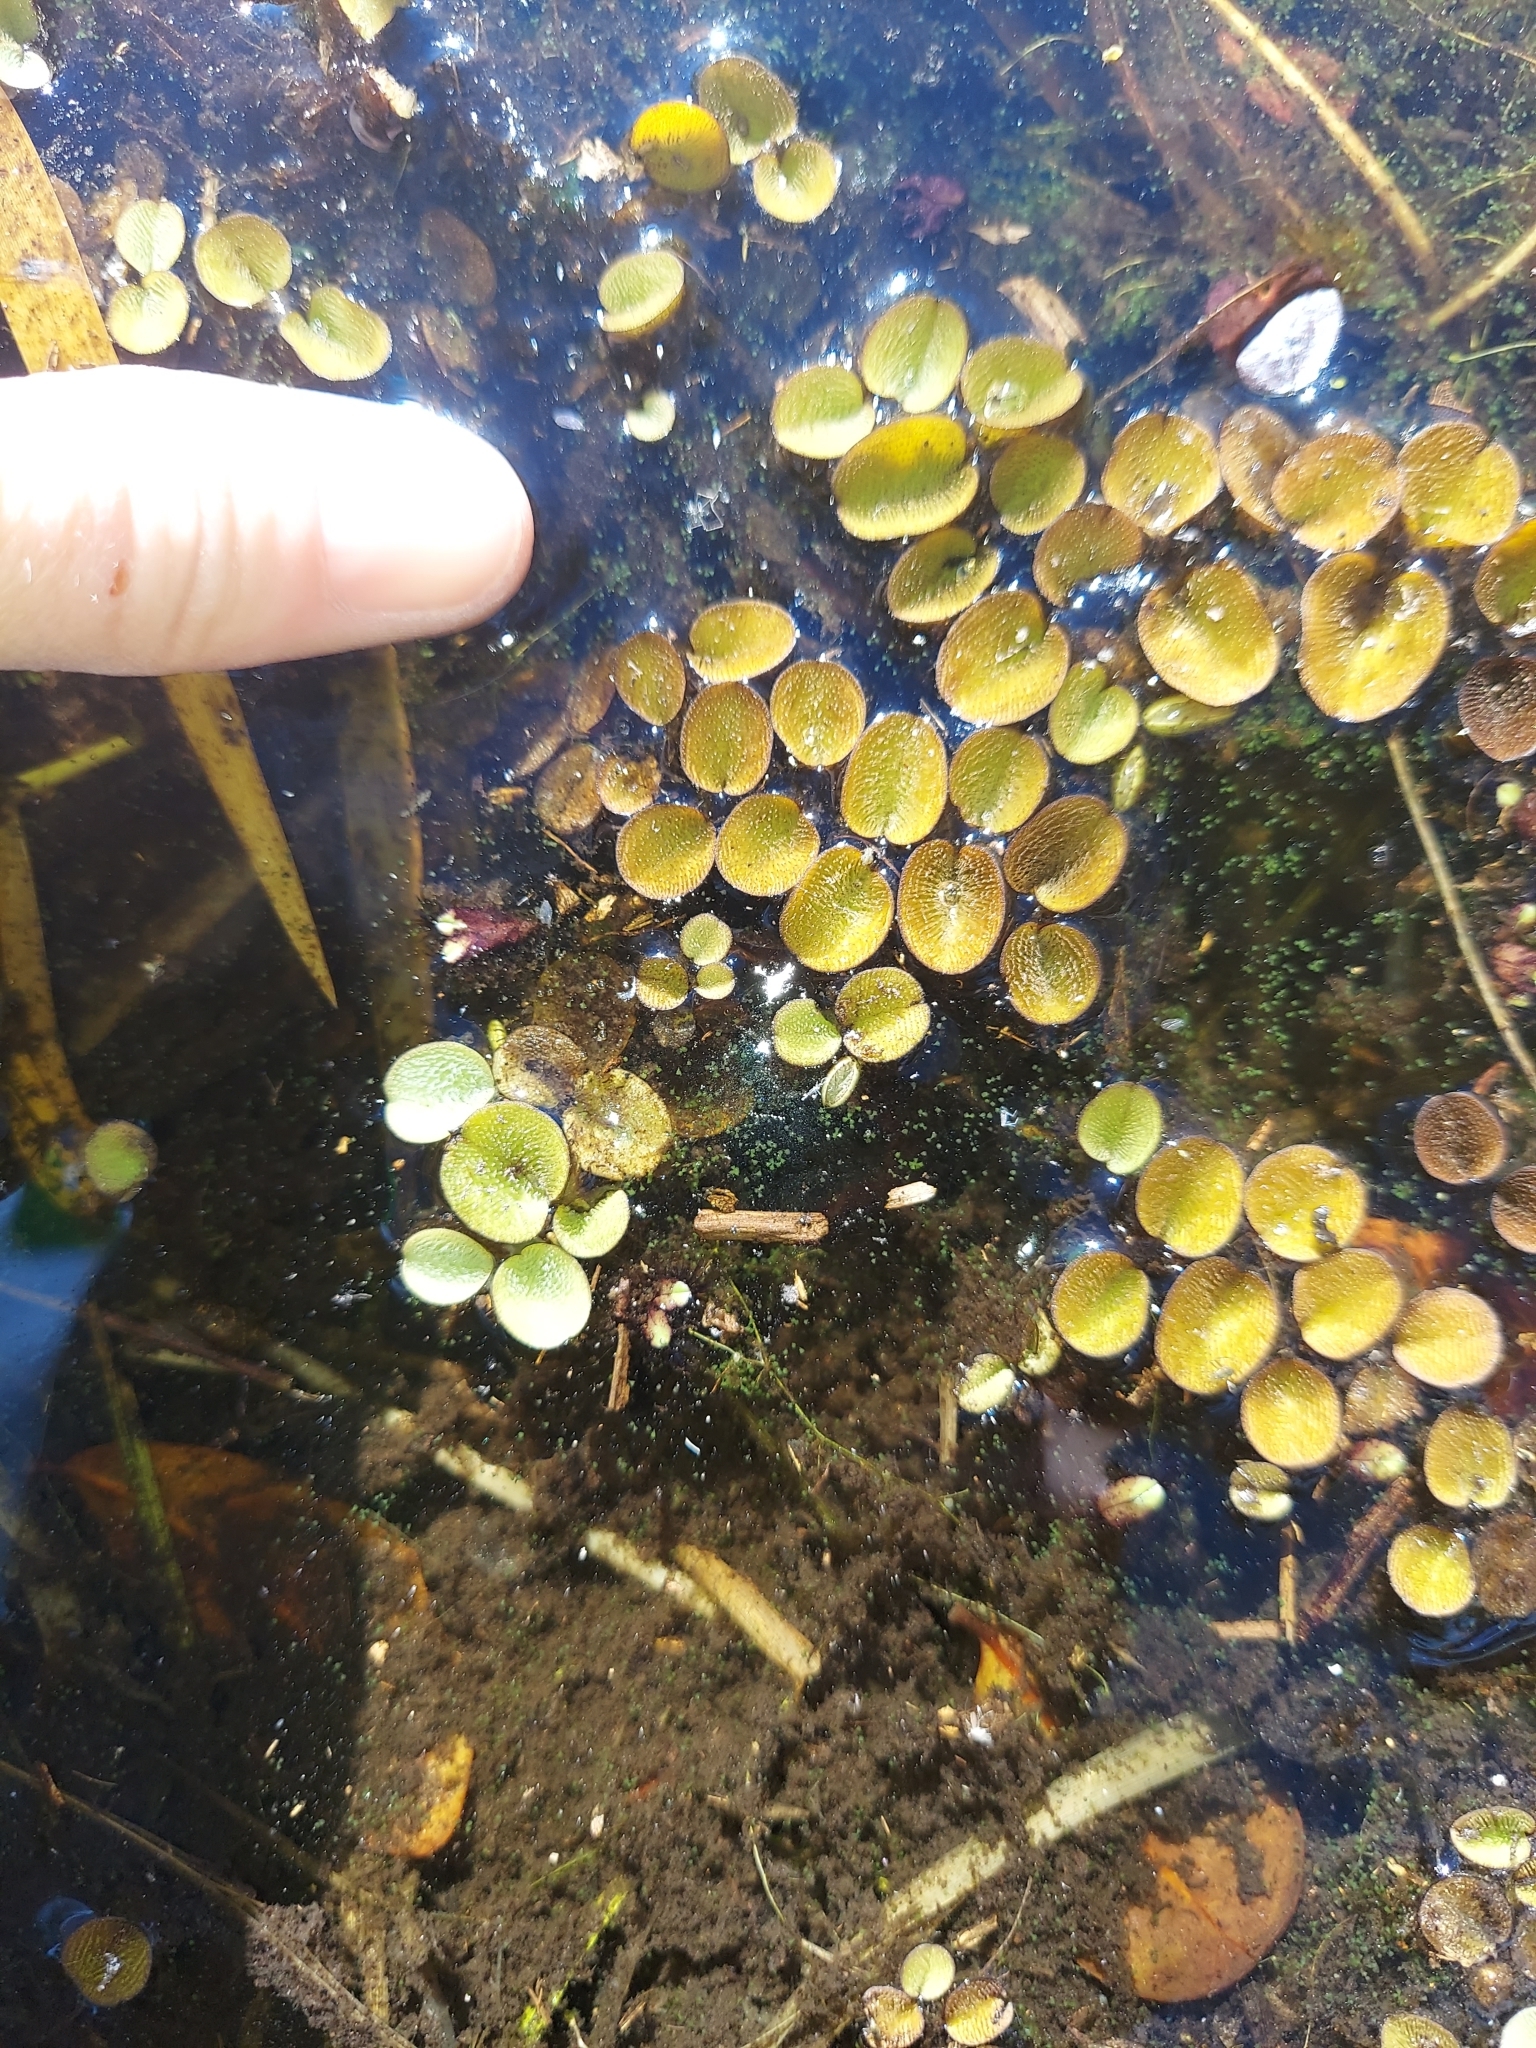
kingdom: Plantae
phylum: Tracheophyta
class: Polypodiopsida
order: Salviniales
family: Salviniaceae
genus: Salvinia
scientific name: Salvinia minima
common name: Water spangles
